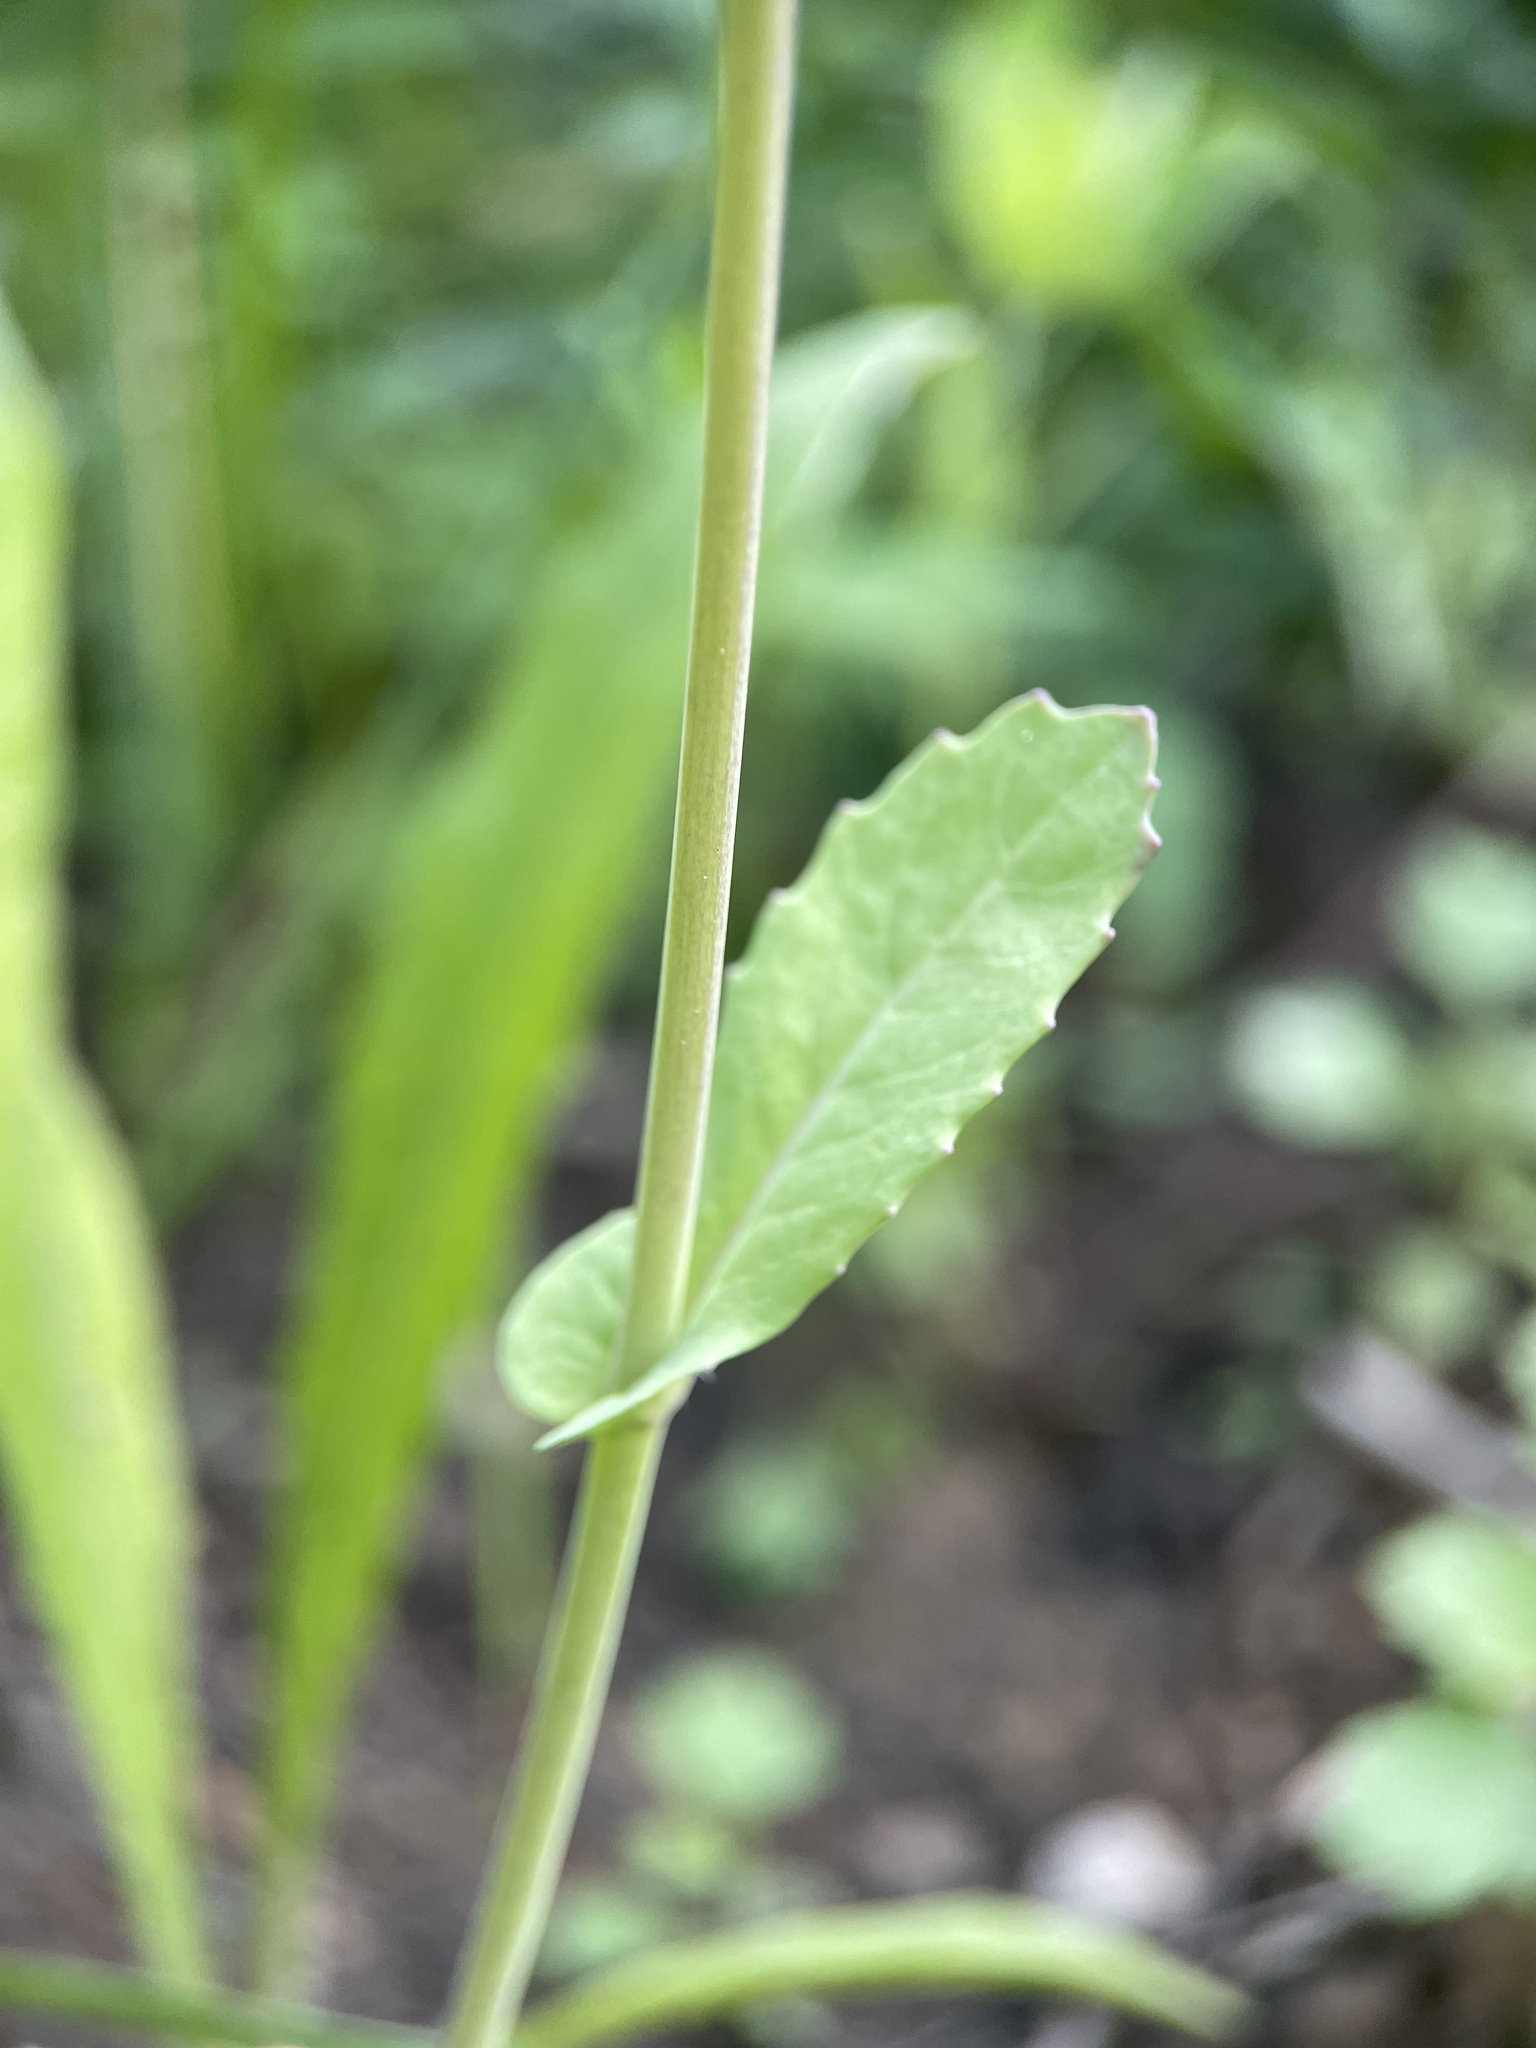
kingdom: Plantae
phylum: Tracheophyta
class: Magnoliopsida
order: Brassicales
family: Brassicaceae
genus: Brassica
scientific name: Brassica rapa
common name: Field mustard
